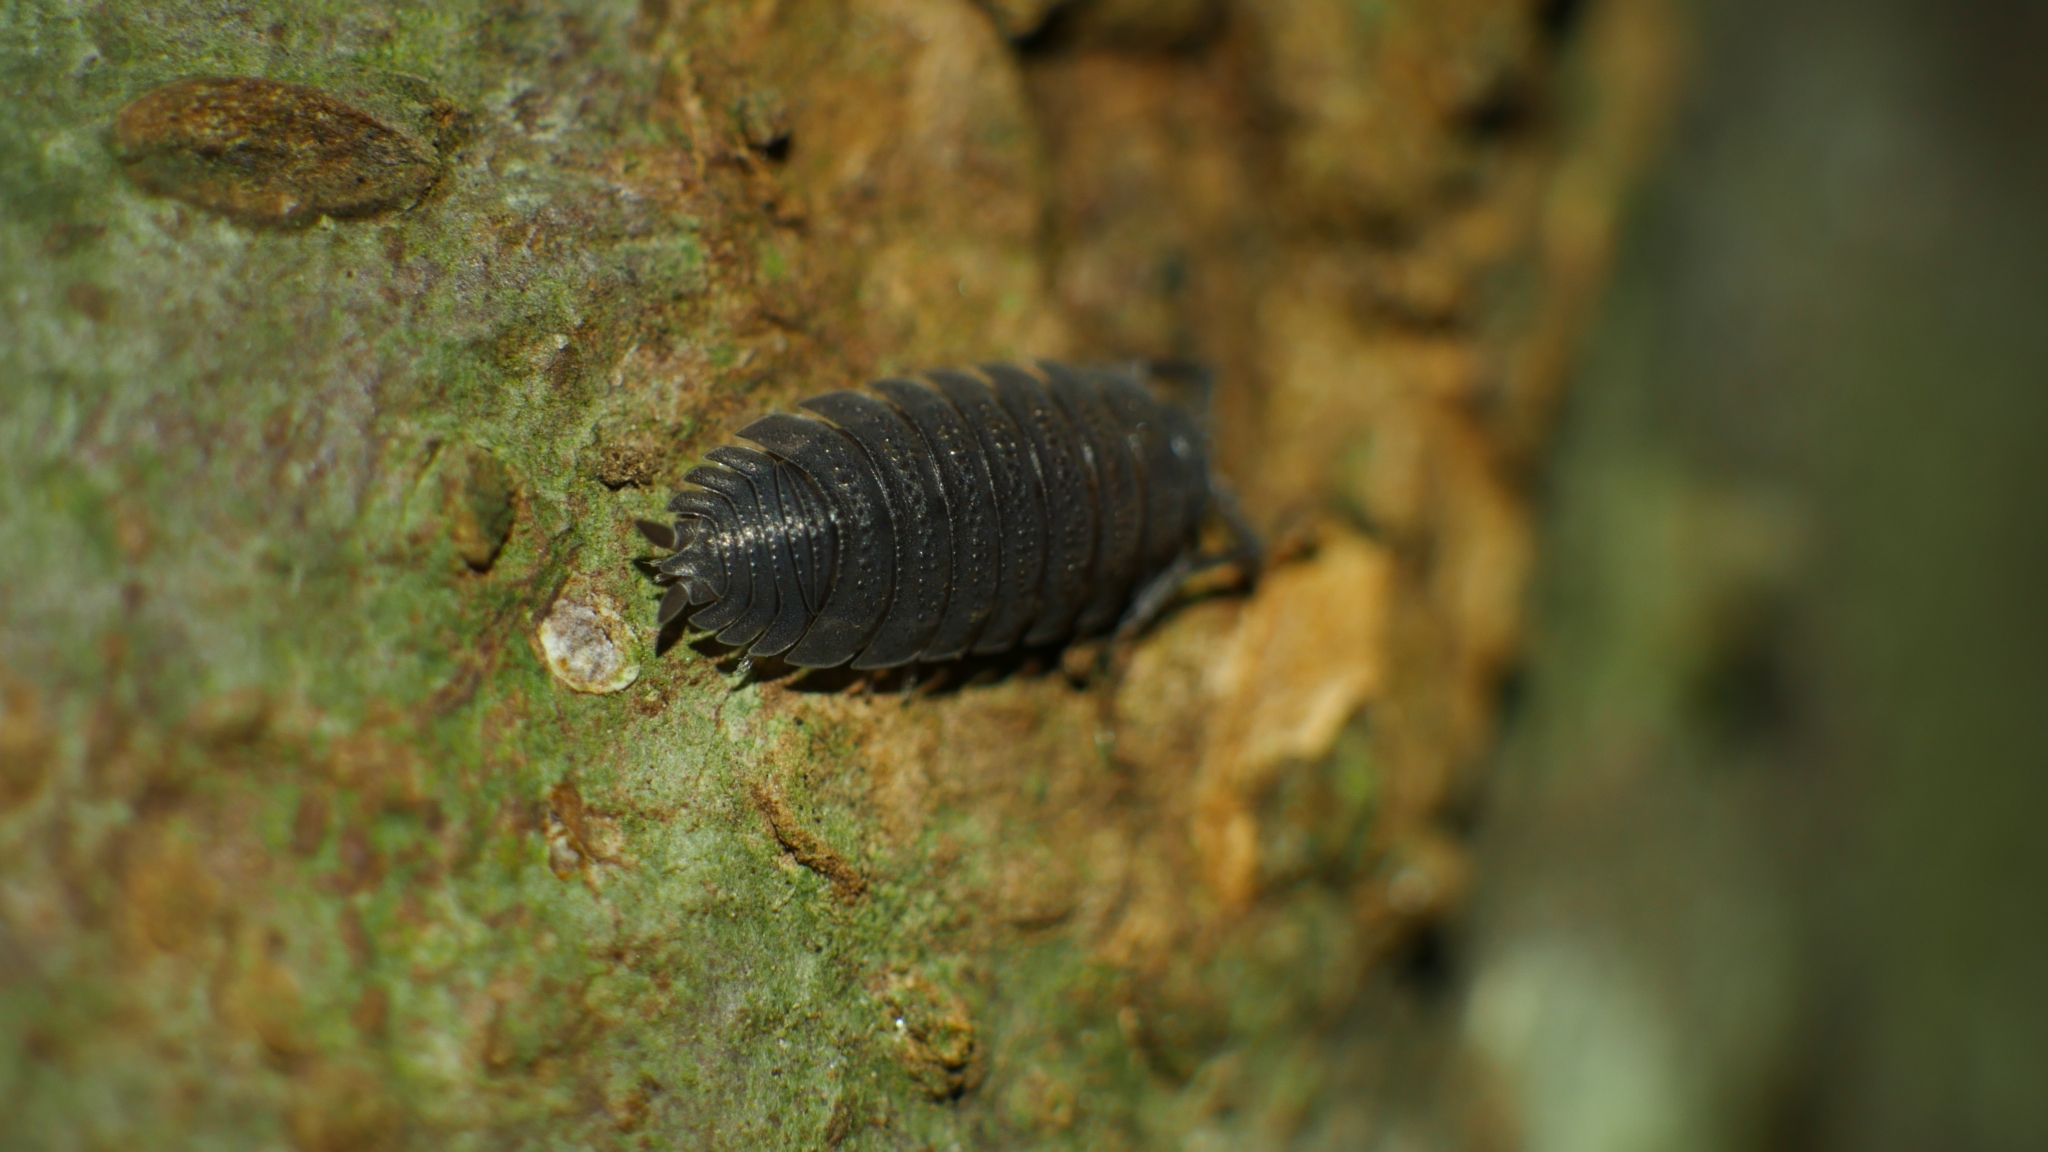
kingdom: Animalia
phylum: Arthropoda
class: Malacostraca
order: Isopoda
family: Porcellionidae
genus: Porcellio
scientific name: Porcellio scaber
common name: Common rough woodlouse
